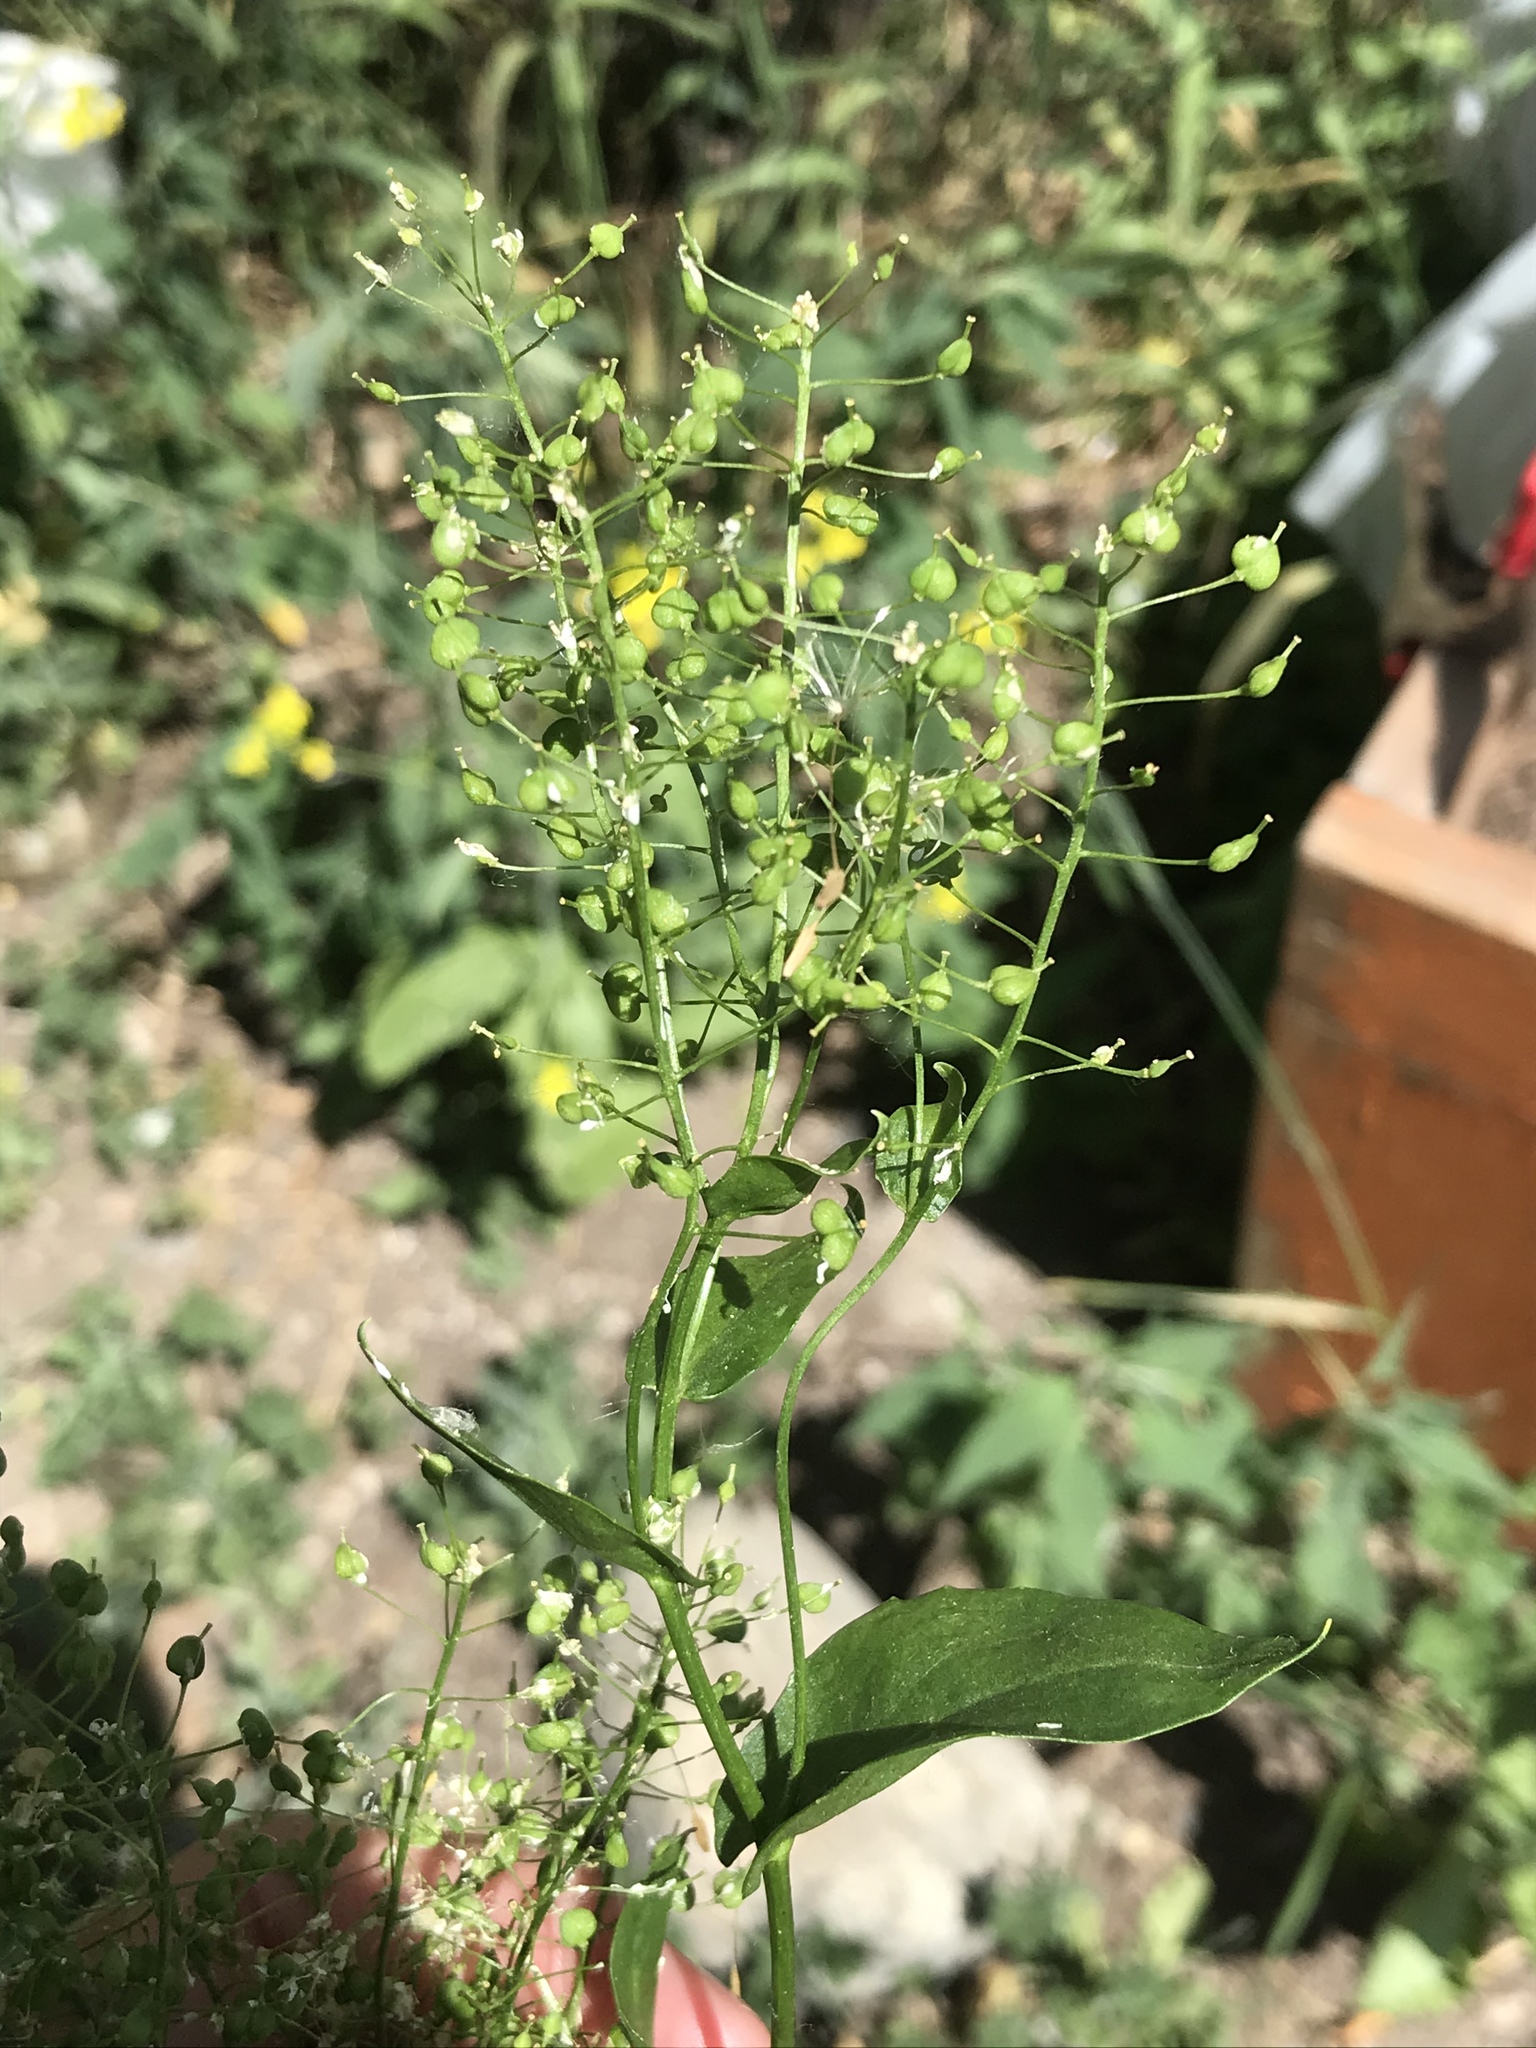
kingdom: Plantae
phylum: Tracheophyta
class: Magnoliopsida
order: Brassicales
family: Brassicaceae
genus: Lepidium
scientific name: Lepidium draba
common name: Hoary cress
